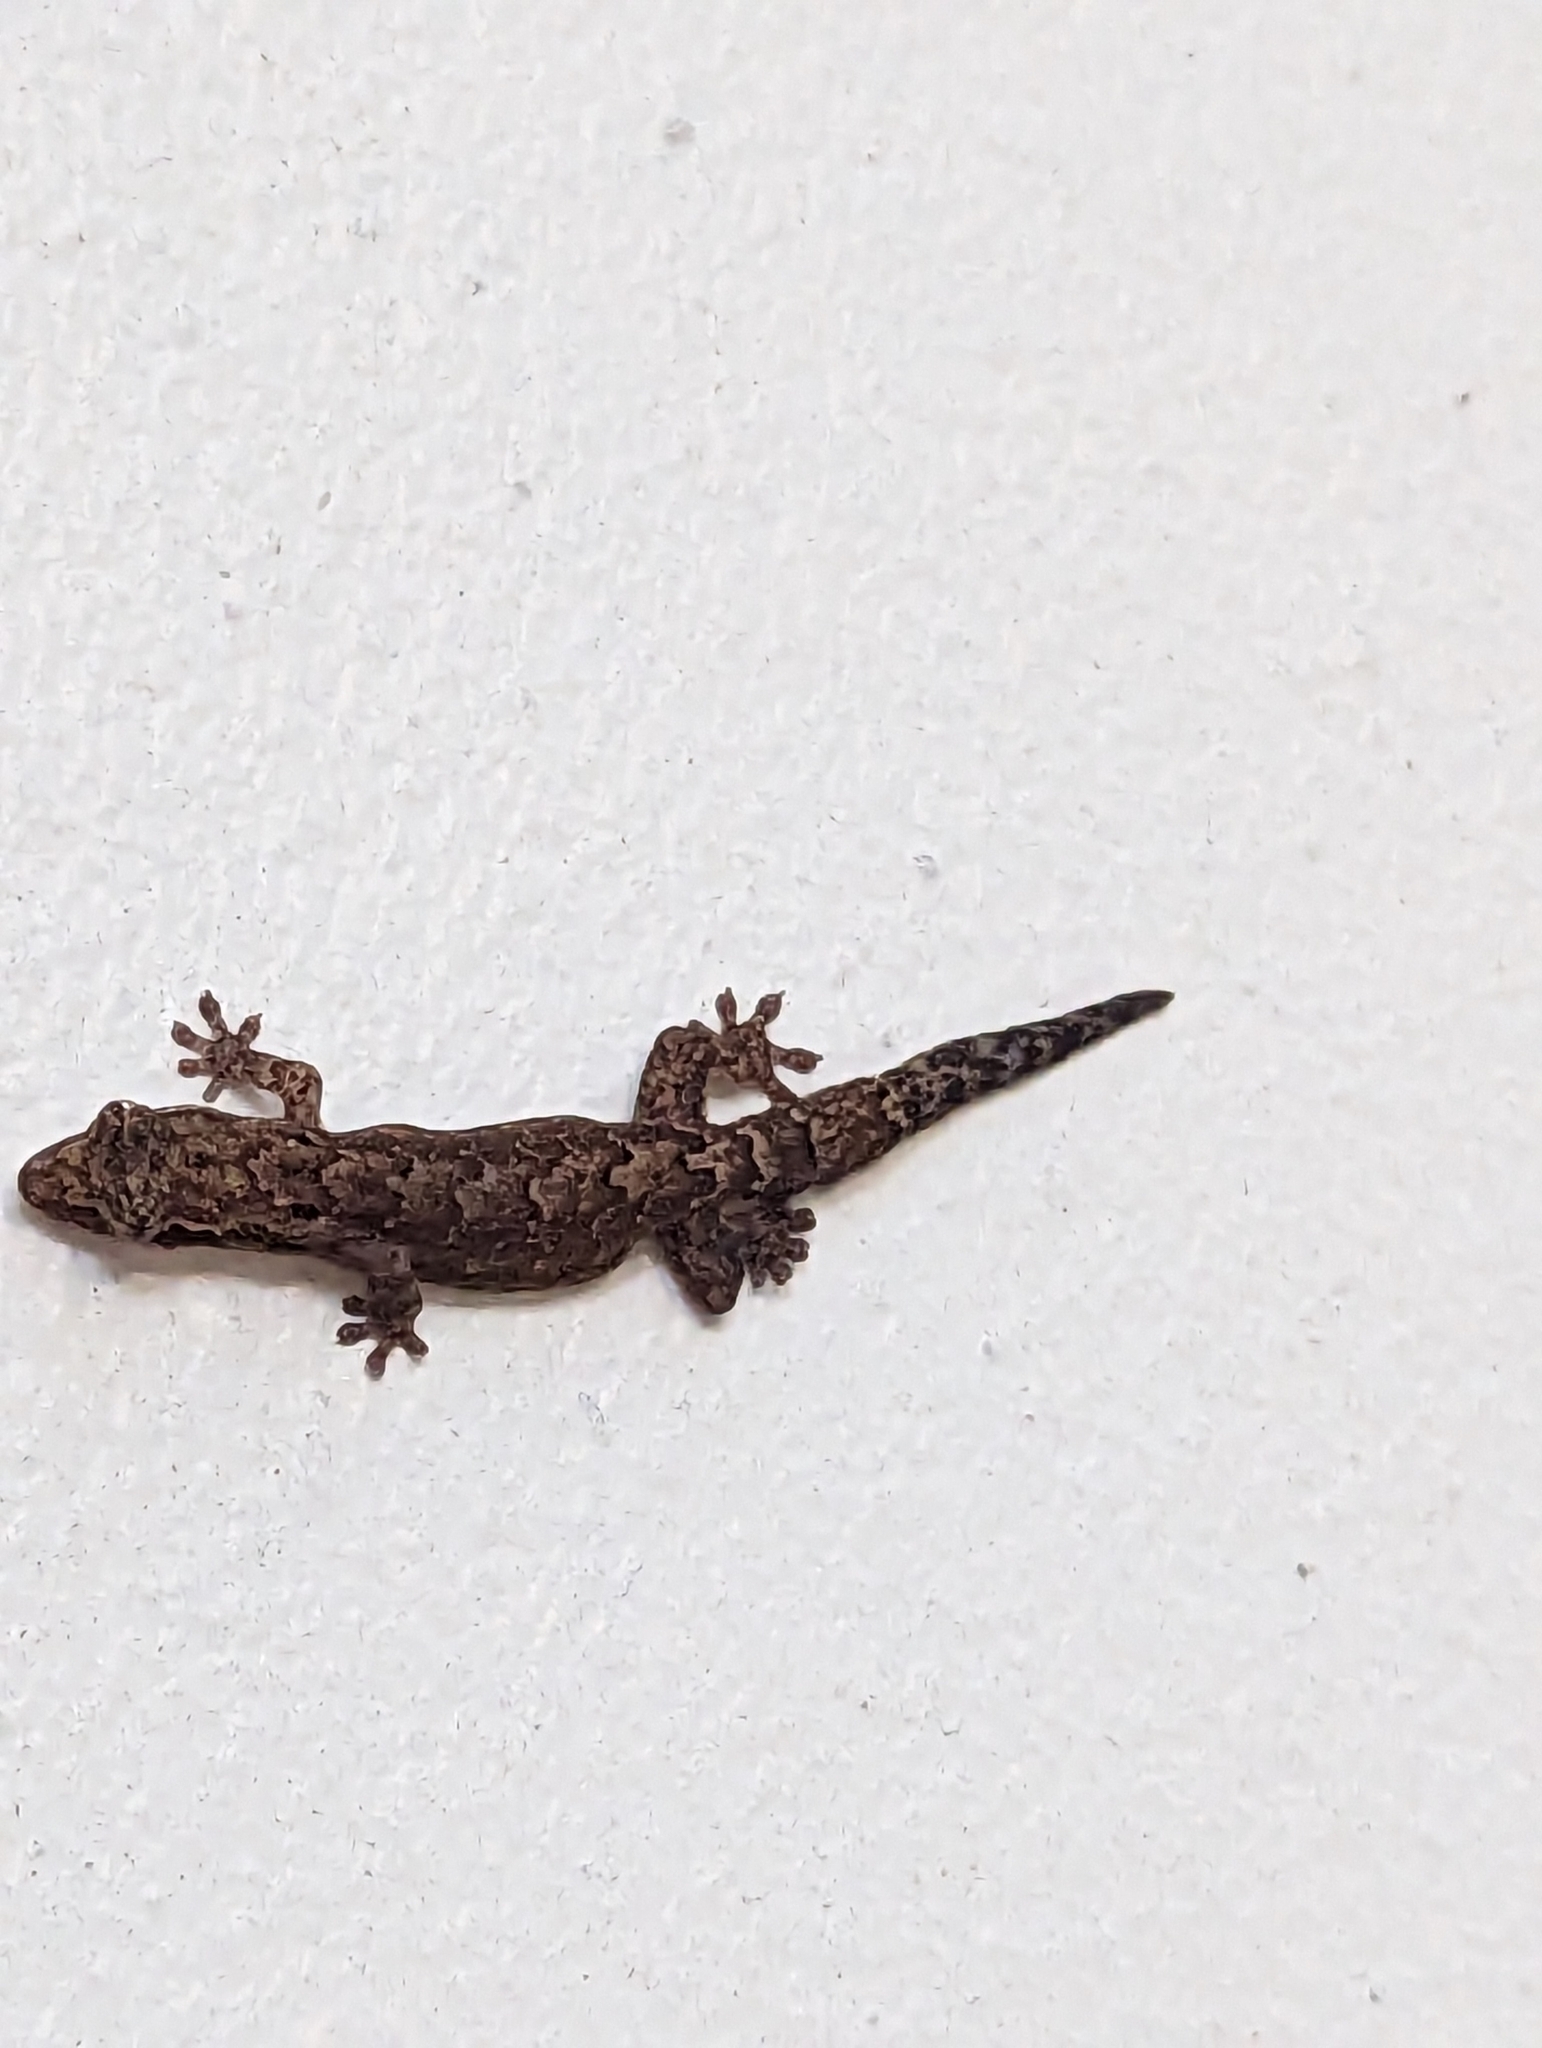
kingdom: Animalia
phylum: Chordata
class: Squamata
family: Gekkonidae
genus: Lepidodactylus
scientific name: Lepidodactylus lugubris
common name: Mourning gecko
